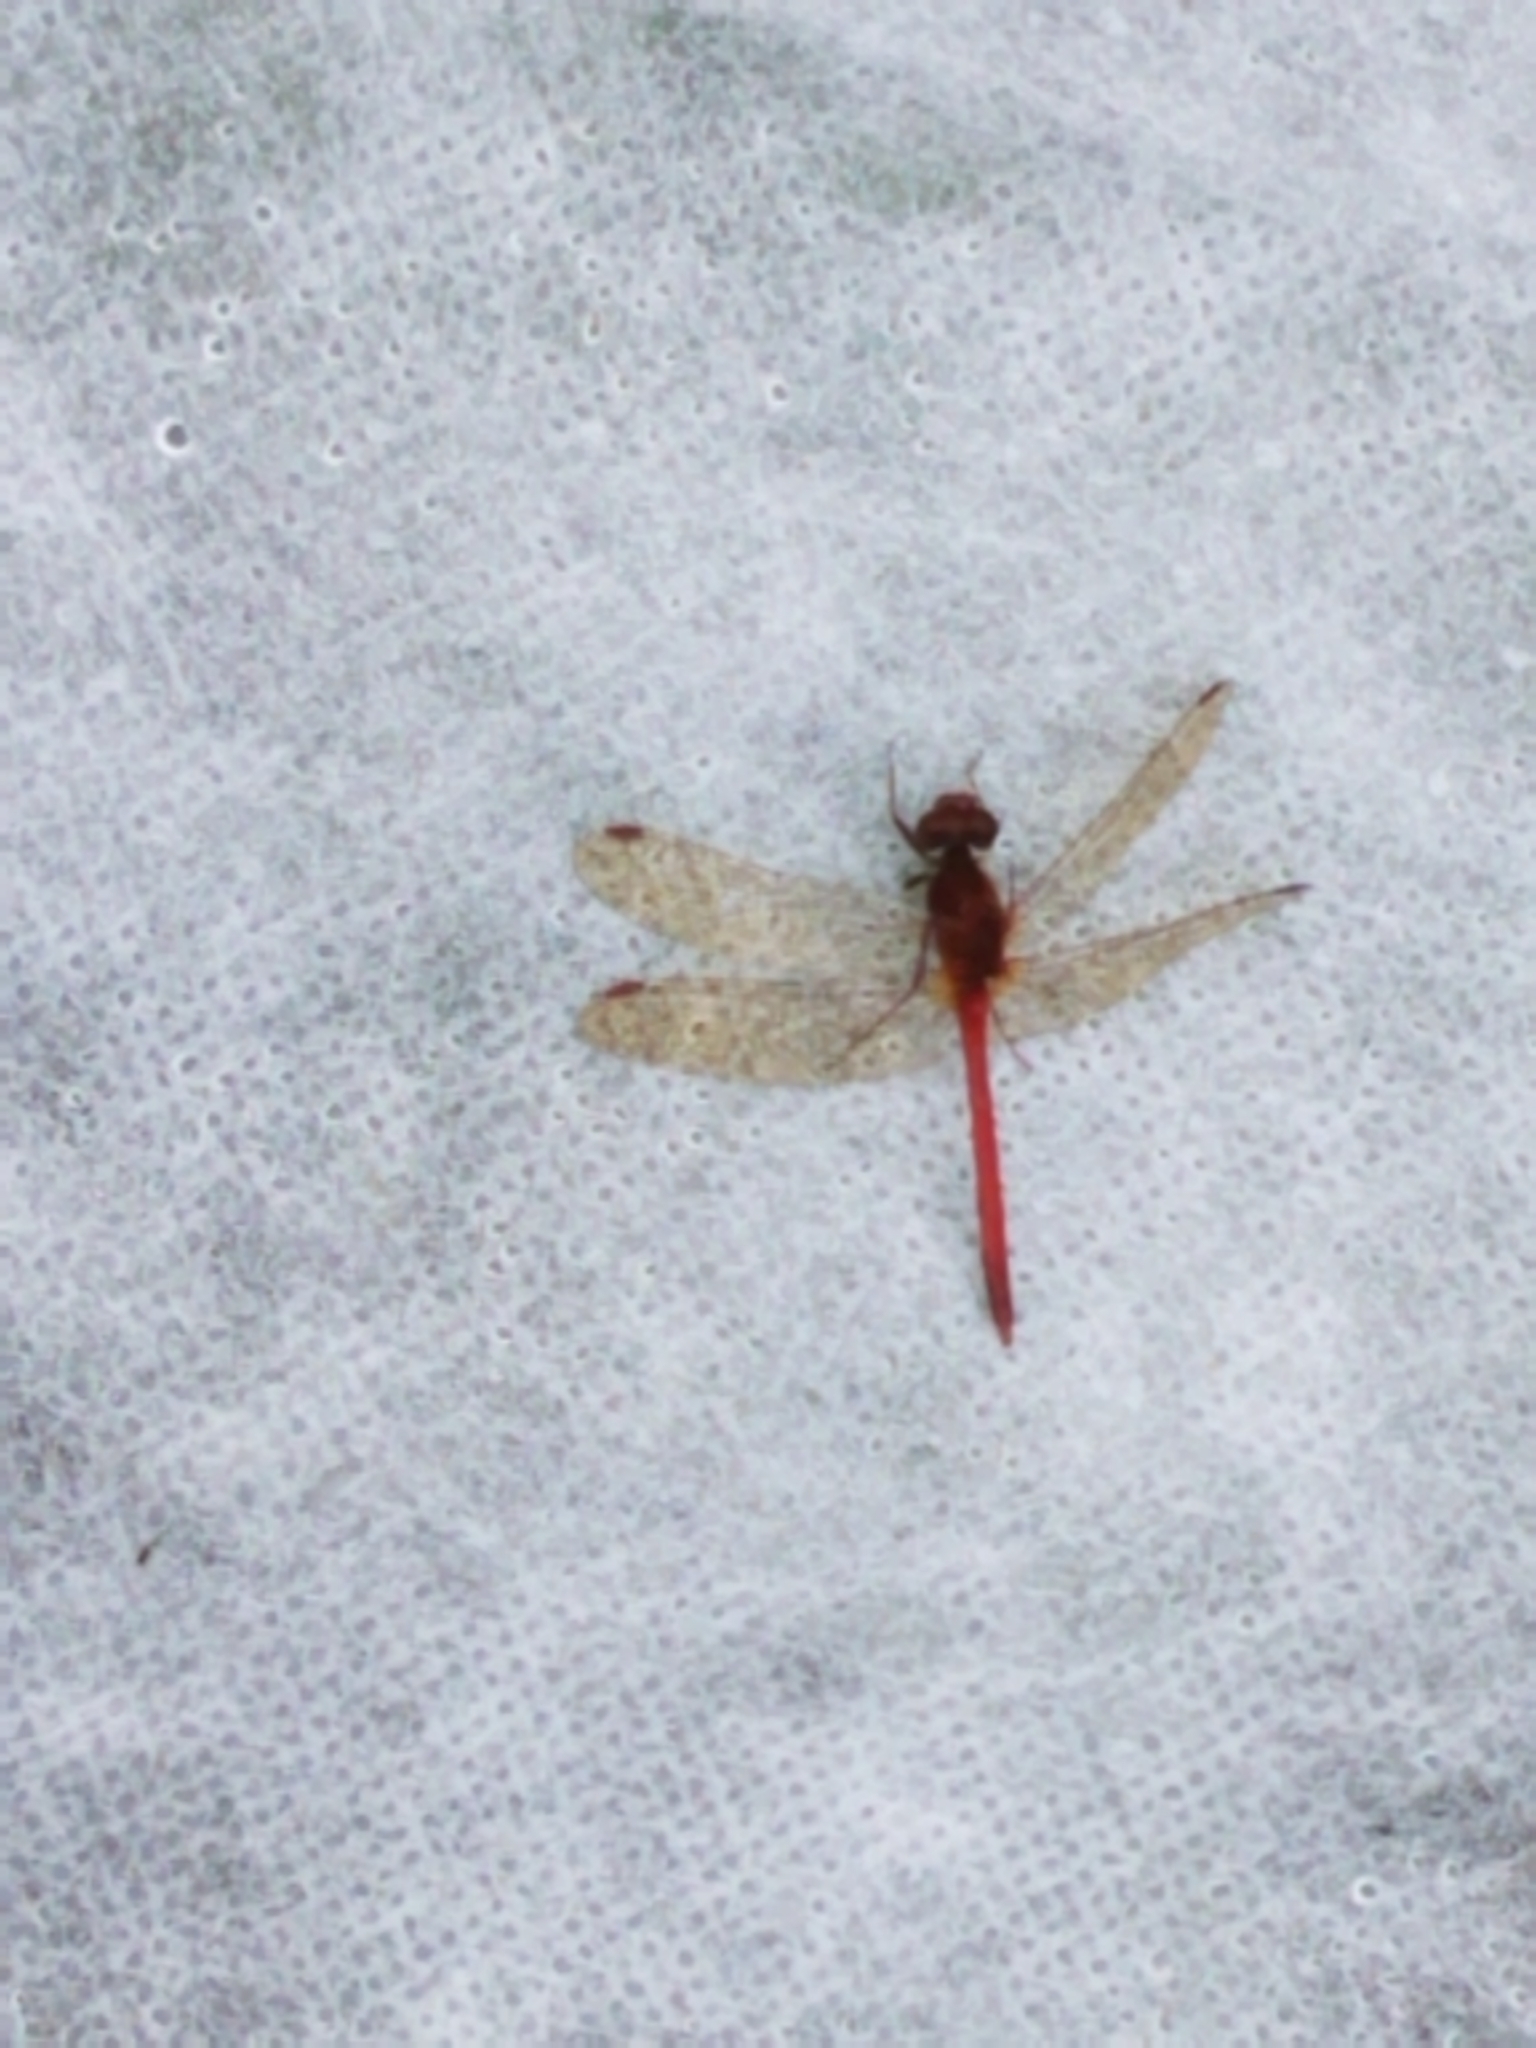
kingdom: Animalia
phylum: Arthropoda
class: Insecta
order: Odonata
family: Libellulidae
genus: Sympetrum
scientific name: Sympetrum vicinum
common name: Autumn meadowhawk
